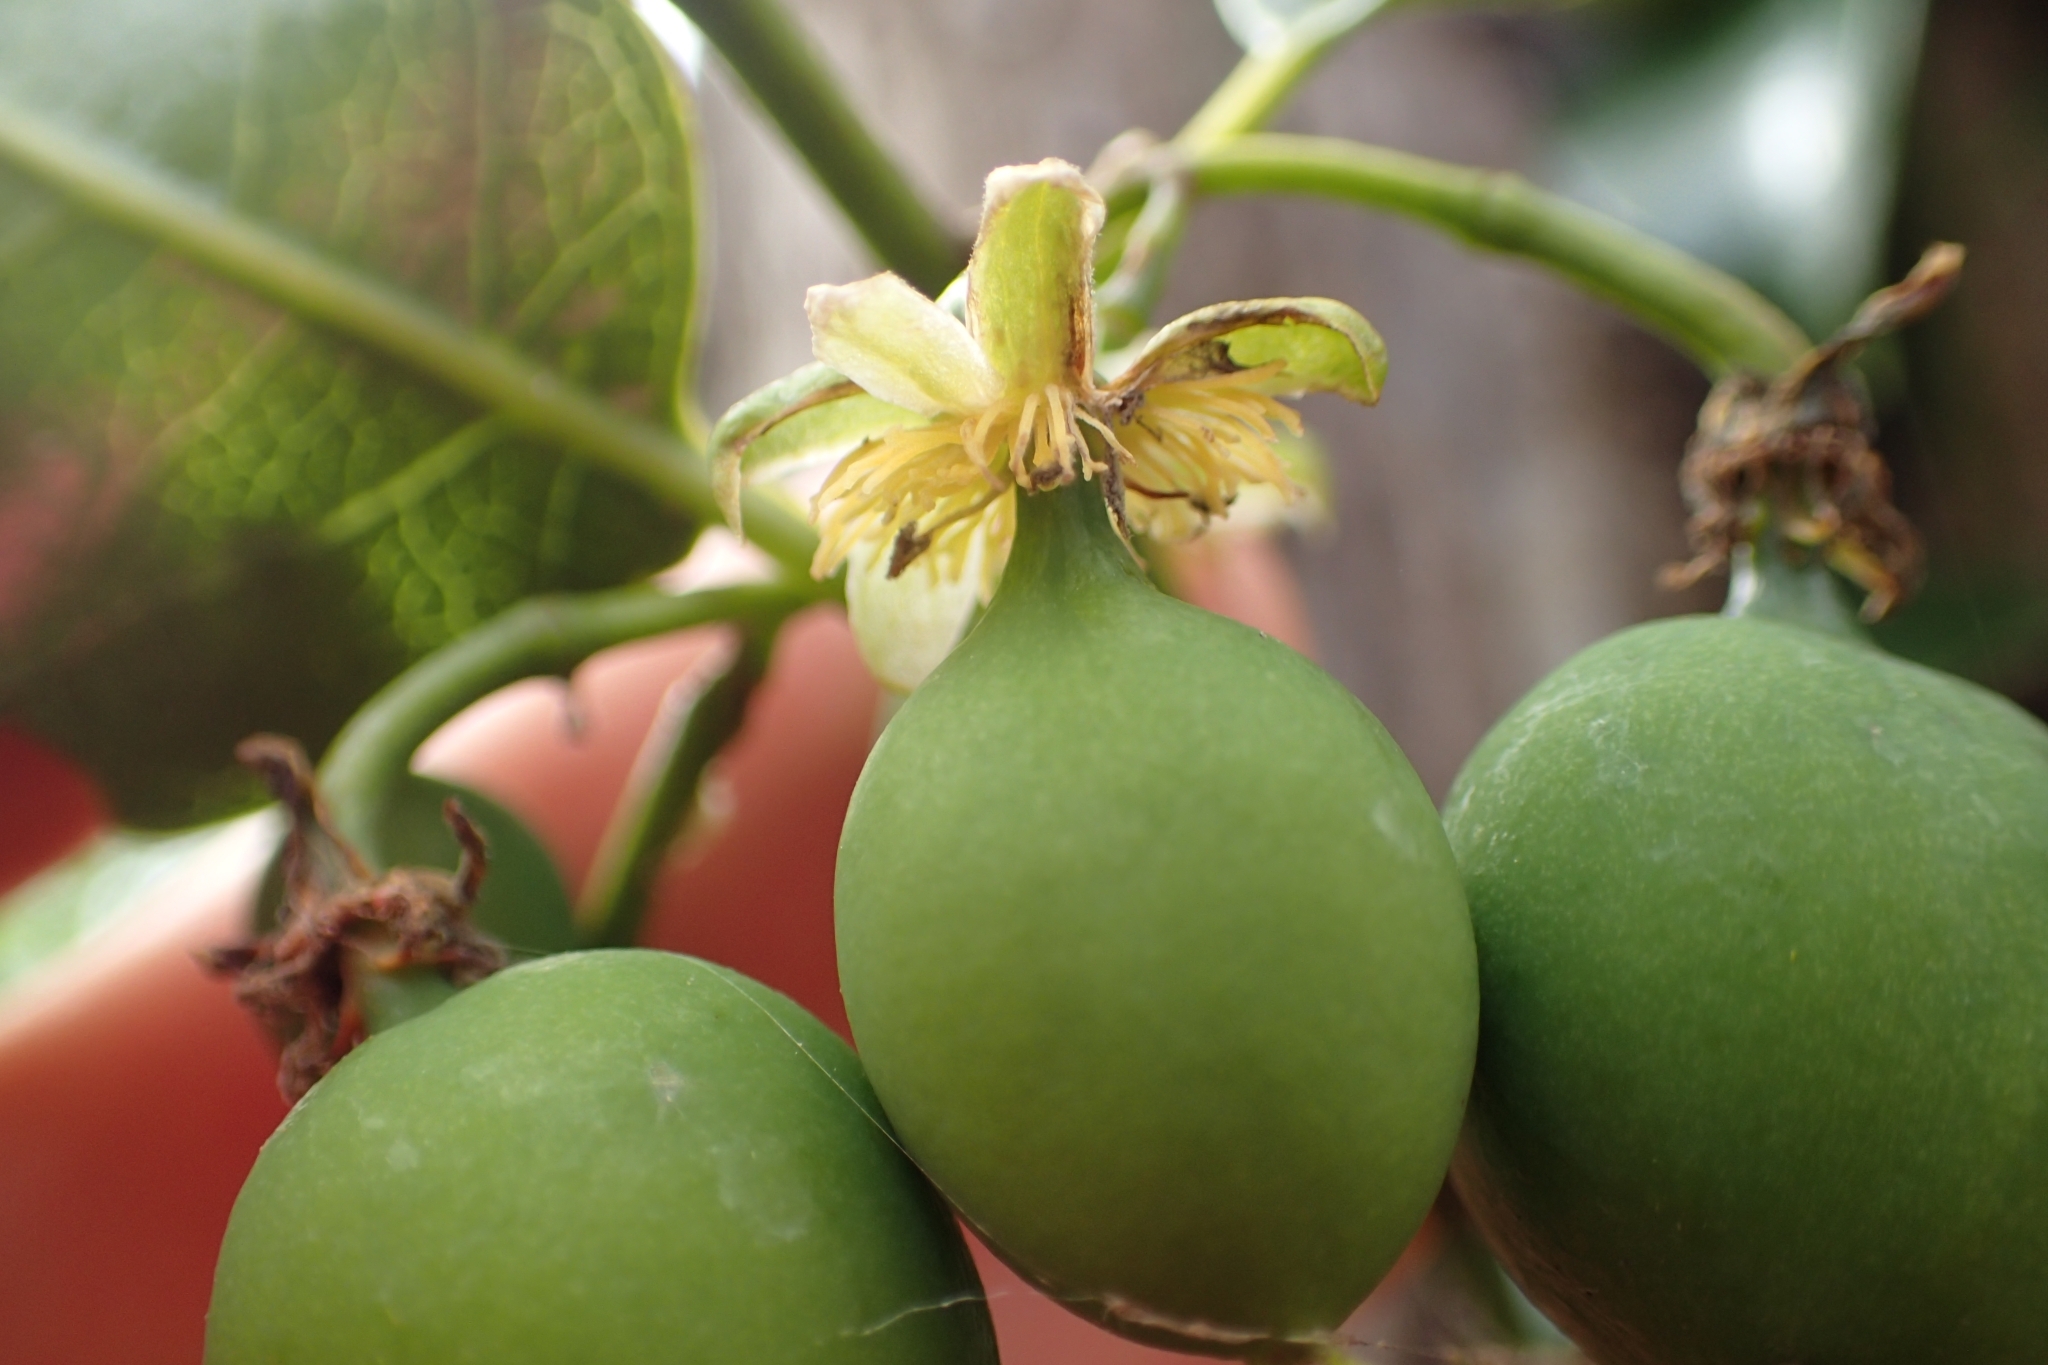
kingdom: Plantae
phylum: Tracheophyta
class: Magnoliopsida
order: Malpighiales
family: Passifloraceae
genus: Passiflora
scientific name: Passiflora tetrandra
